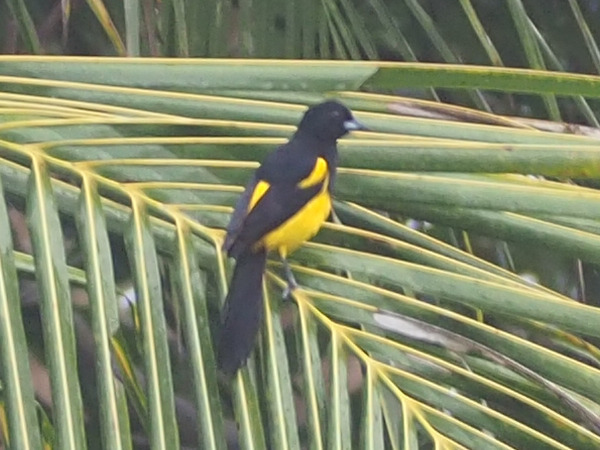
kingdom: Animalia
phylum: Chordata
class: Aves
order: Passeriformes
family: Icteridae
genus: Icterus
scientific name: Icterus prosthemelas
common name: Black-cowled oriole
